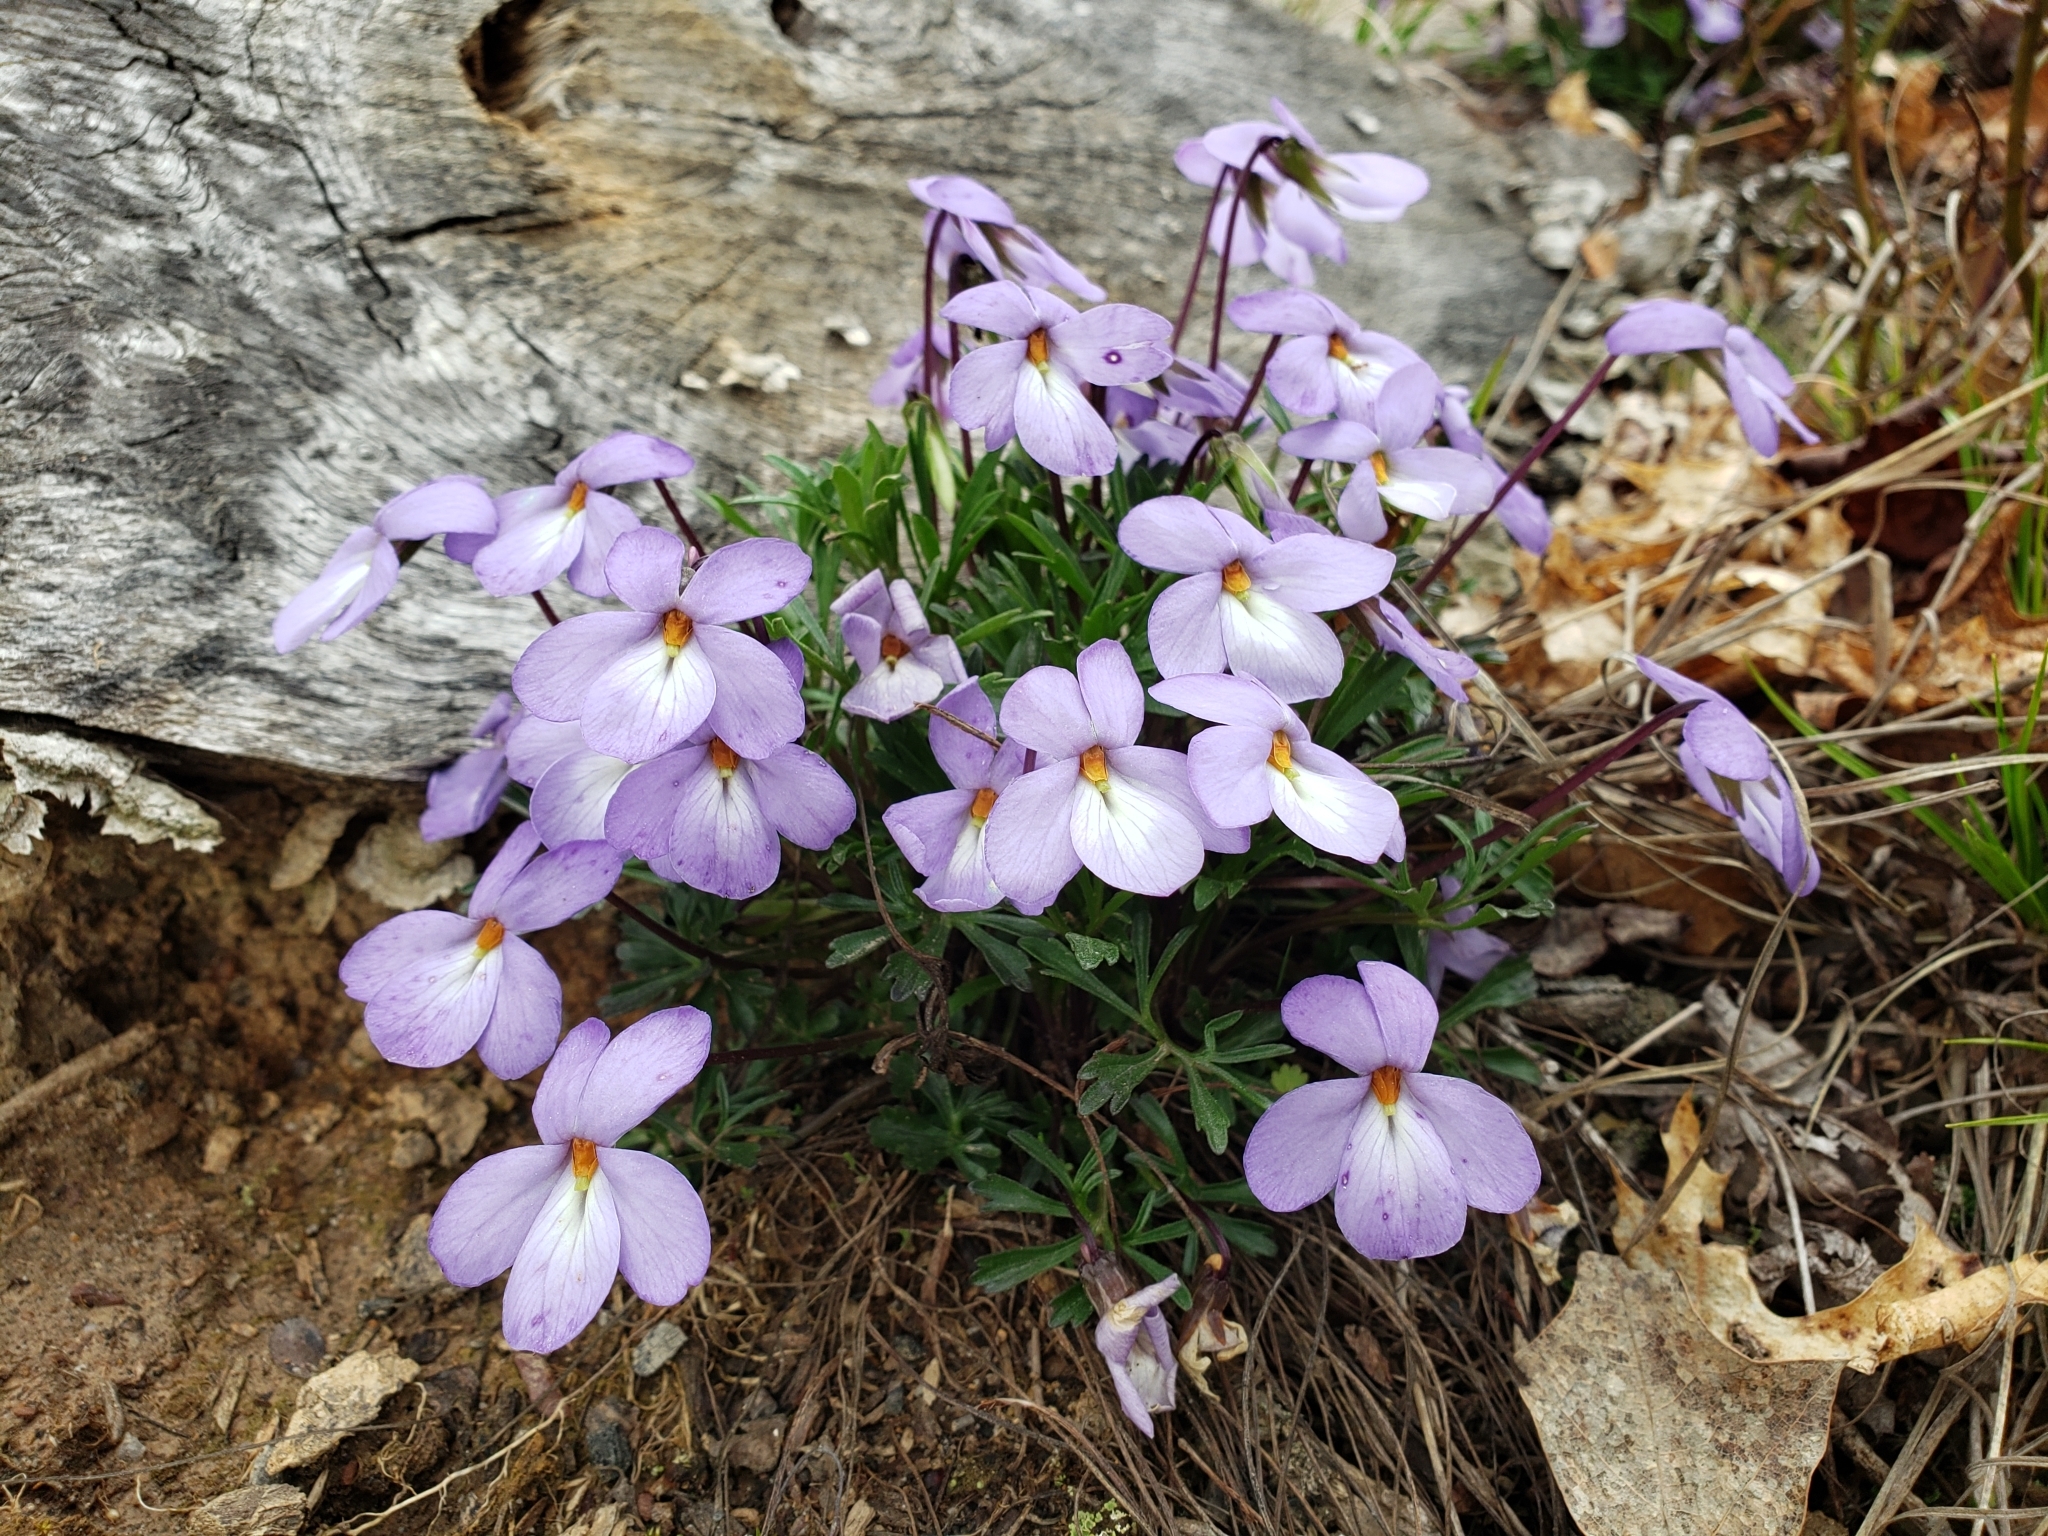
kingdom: Plantae
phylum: Tracheophyta
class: Magnoliopsida
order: Malpighiales
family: Violaceae
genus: Viola
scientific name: Viola pedata
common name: Pansy violet
